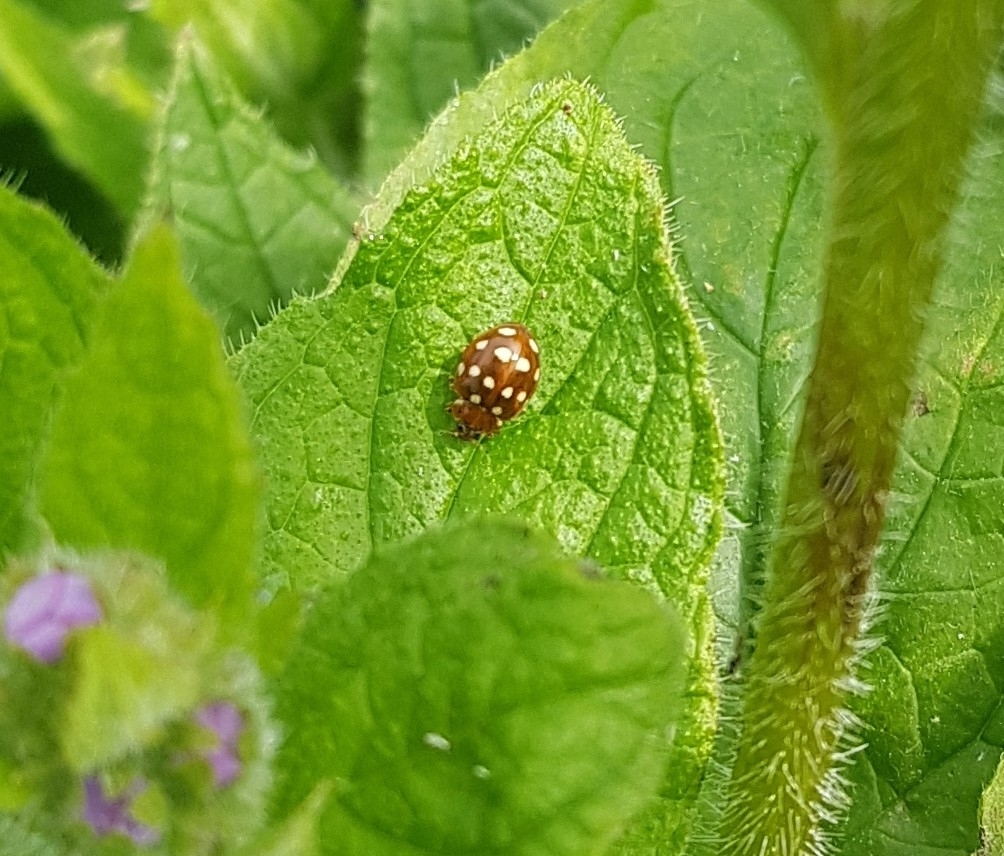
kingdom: Animalia
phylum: Arthropoda
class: Insecta
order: Coleoptera
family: Coccinellidae
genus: Calvia
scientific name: Calvia quatuordecimguttata
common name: Cream-spot ladybird
